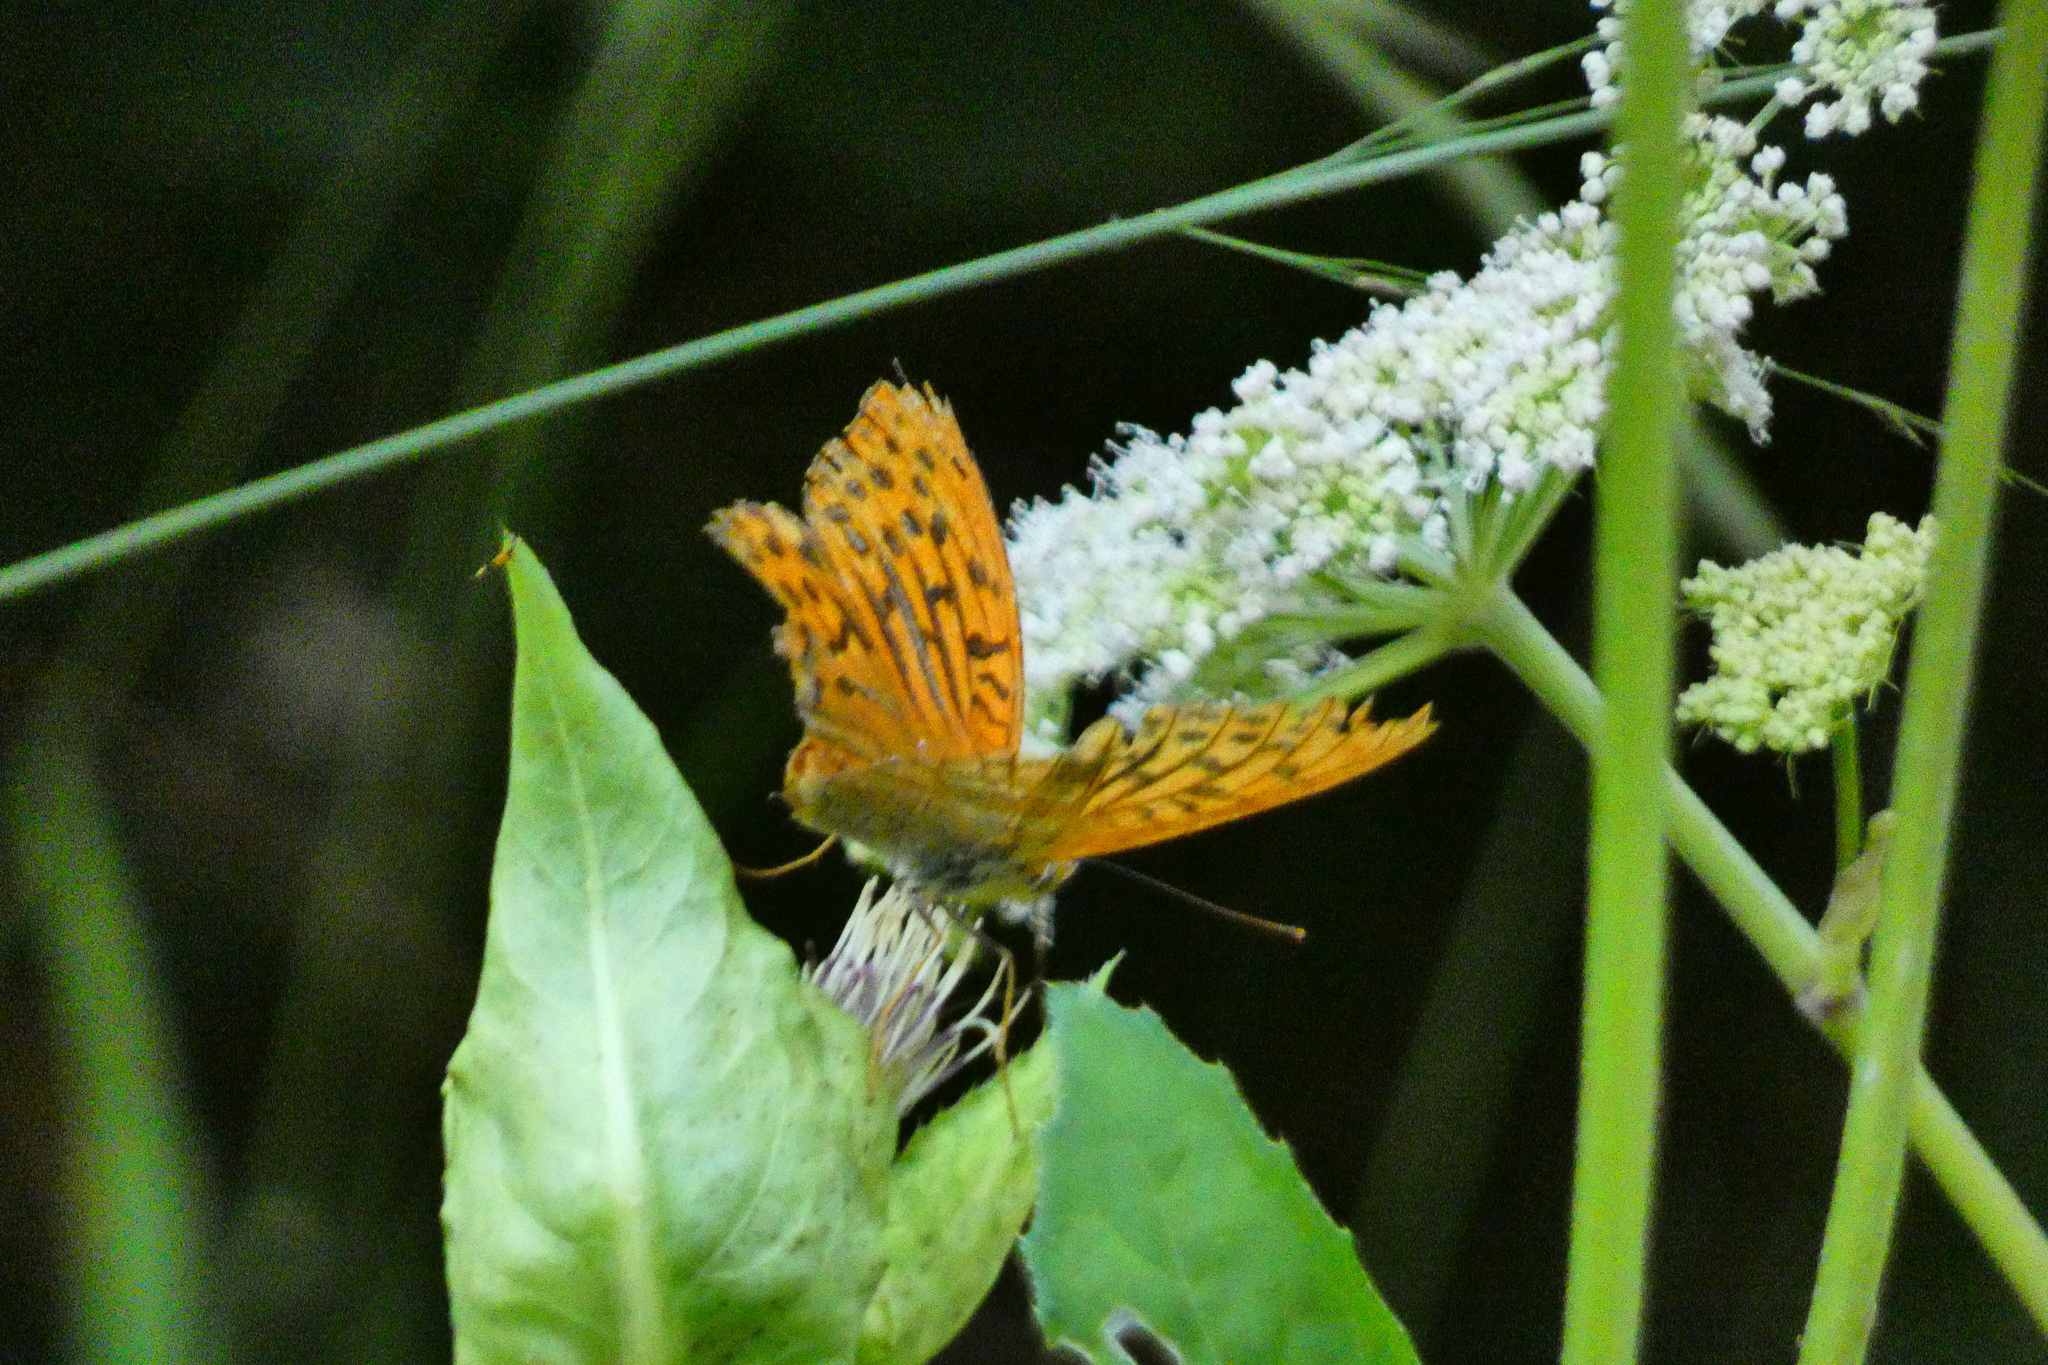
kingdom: Animalia
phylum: Arthropoda
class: Insecta
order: Lepidoptera
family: Nymphalidae
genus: Argynnis
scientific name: Argynnis paphia
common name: Silver-washed fritillary
